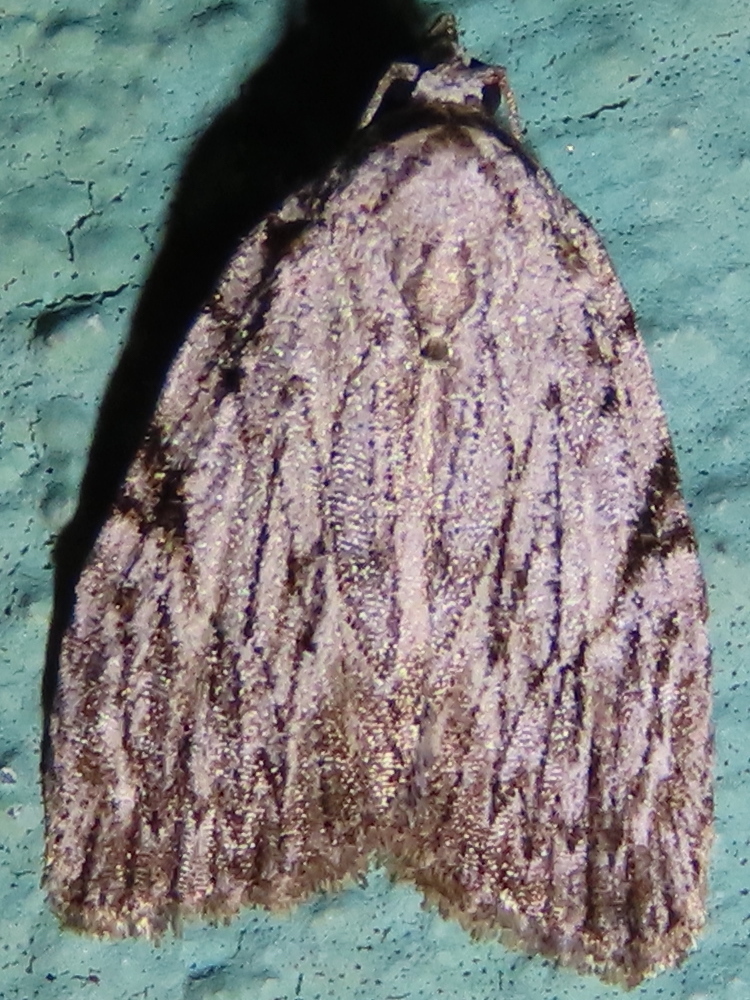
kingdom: Animalia
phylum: Arthropoda
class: Insecta
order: Lepidoptera
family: Noctuidae
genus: Balsa
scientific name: Balsa tristrigella
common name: Three-lined balsa moth
